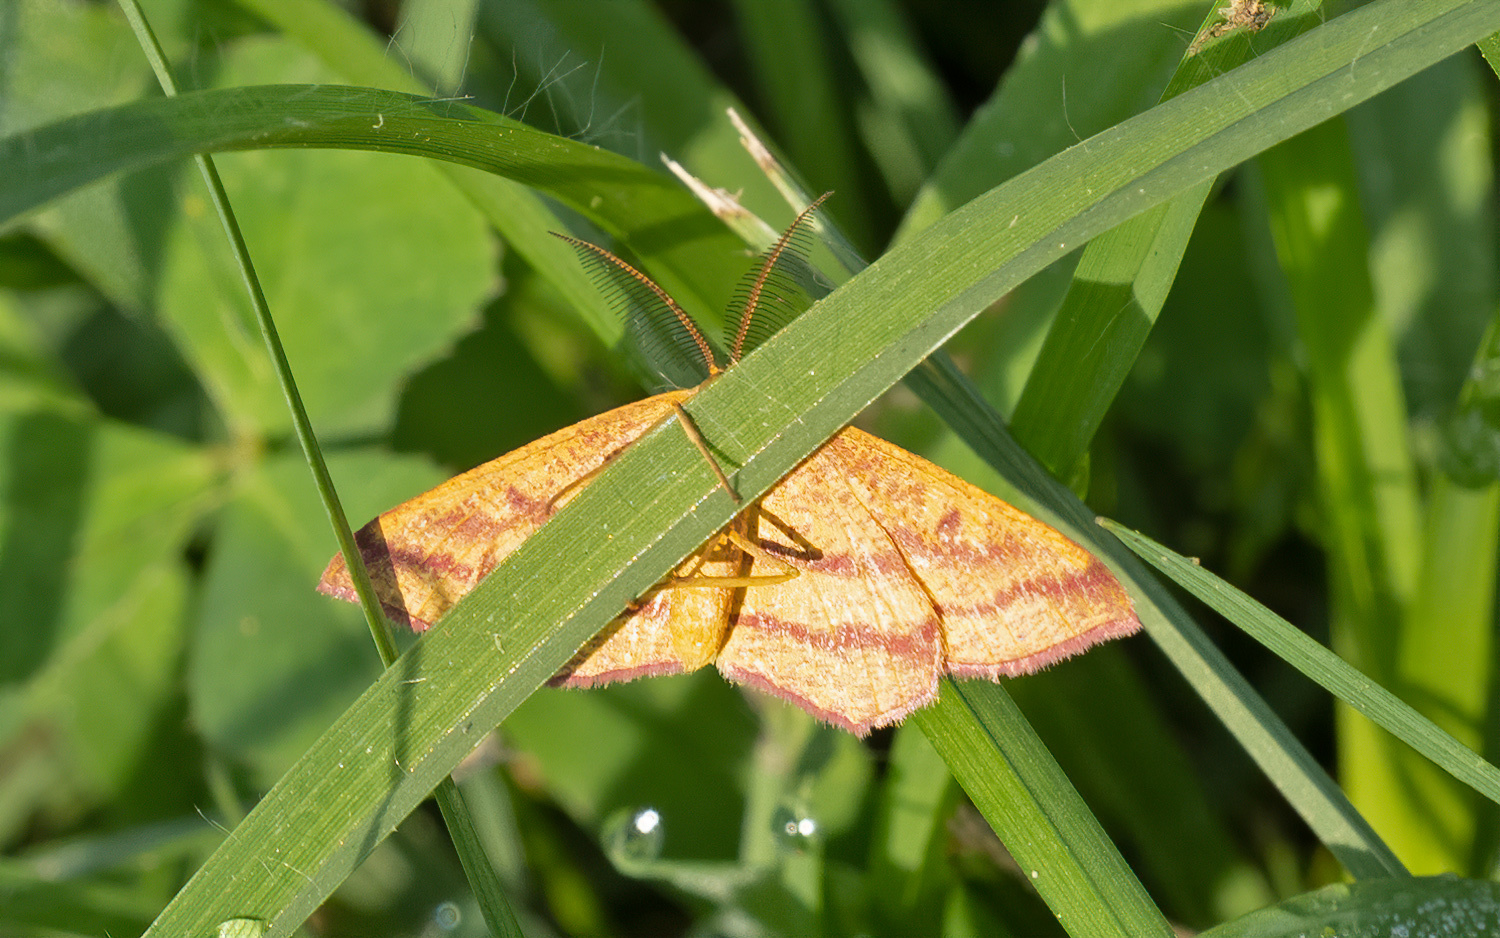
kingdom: Animalia
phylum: Arthropoda
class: Insecta
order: Lepidoptera
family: Geometridae
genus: Haematopis
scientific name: Haematopis grataria
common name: Chickweed geometer
